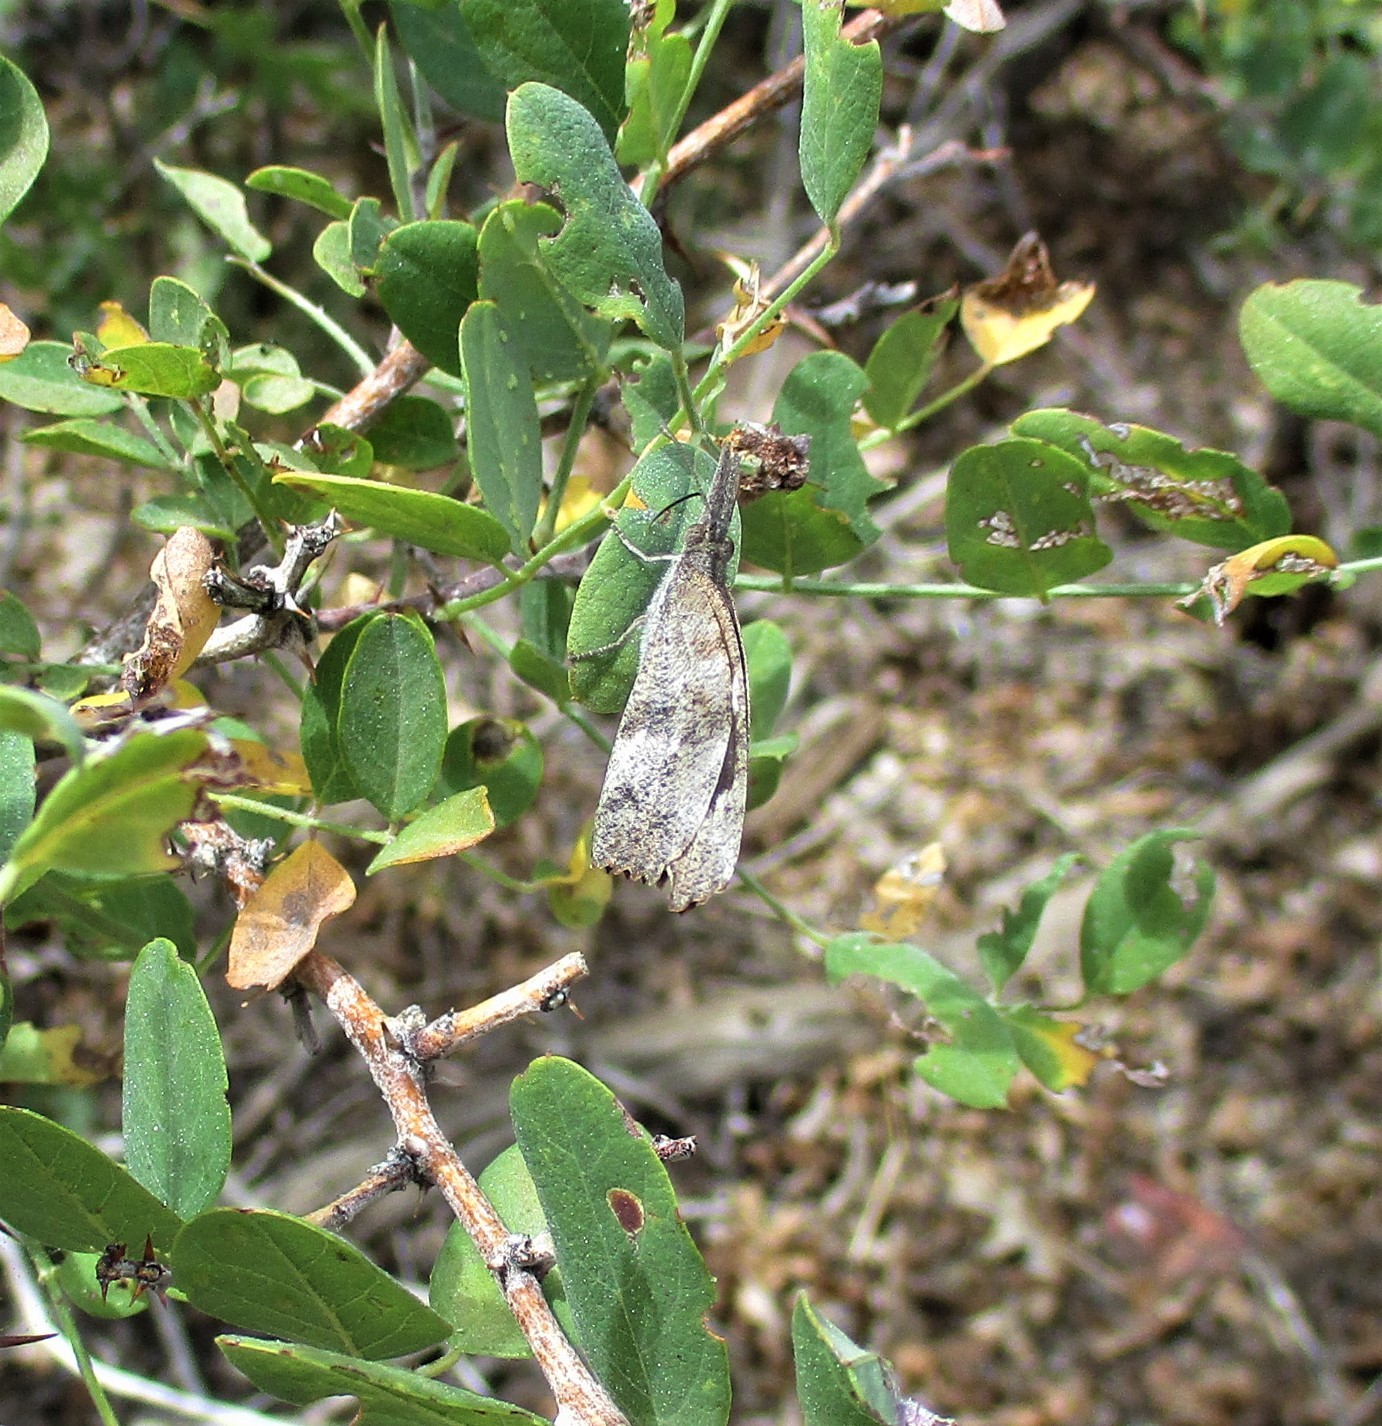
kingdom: Animalia
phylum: Arthropoda
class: Insecta
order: Lepidoptera
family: Nymphalidae
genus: Libytheana
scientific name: Libytheana carinenta
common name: American snout
